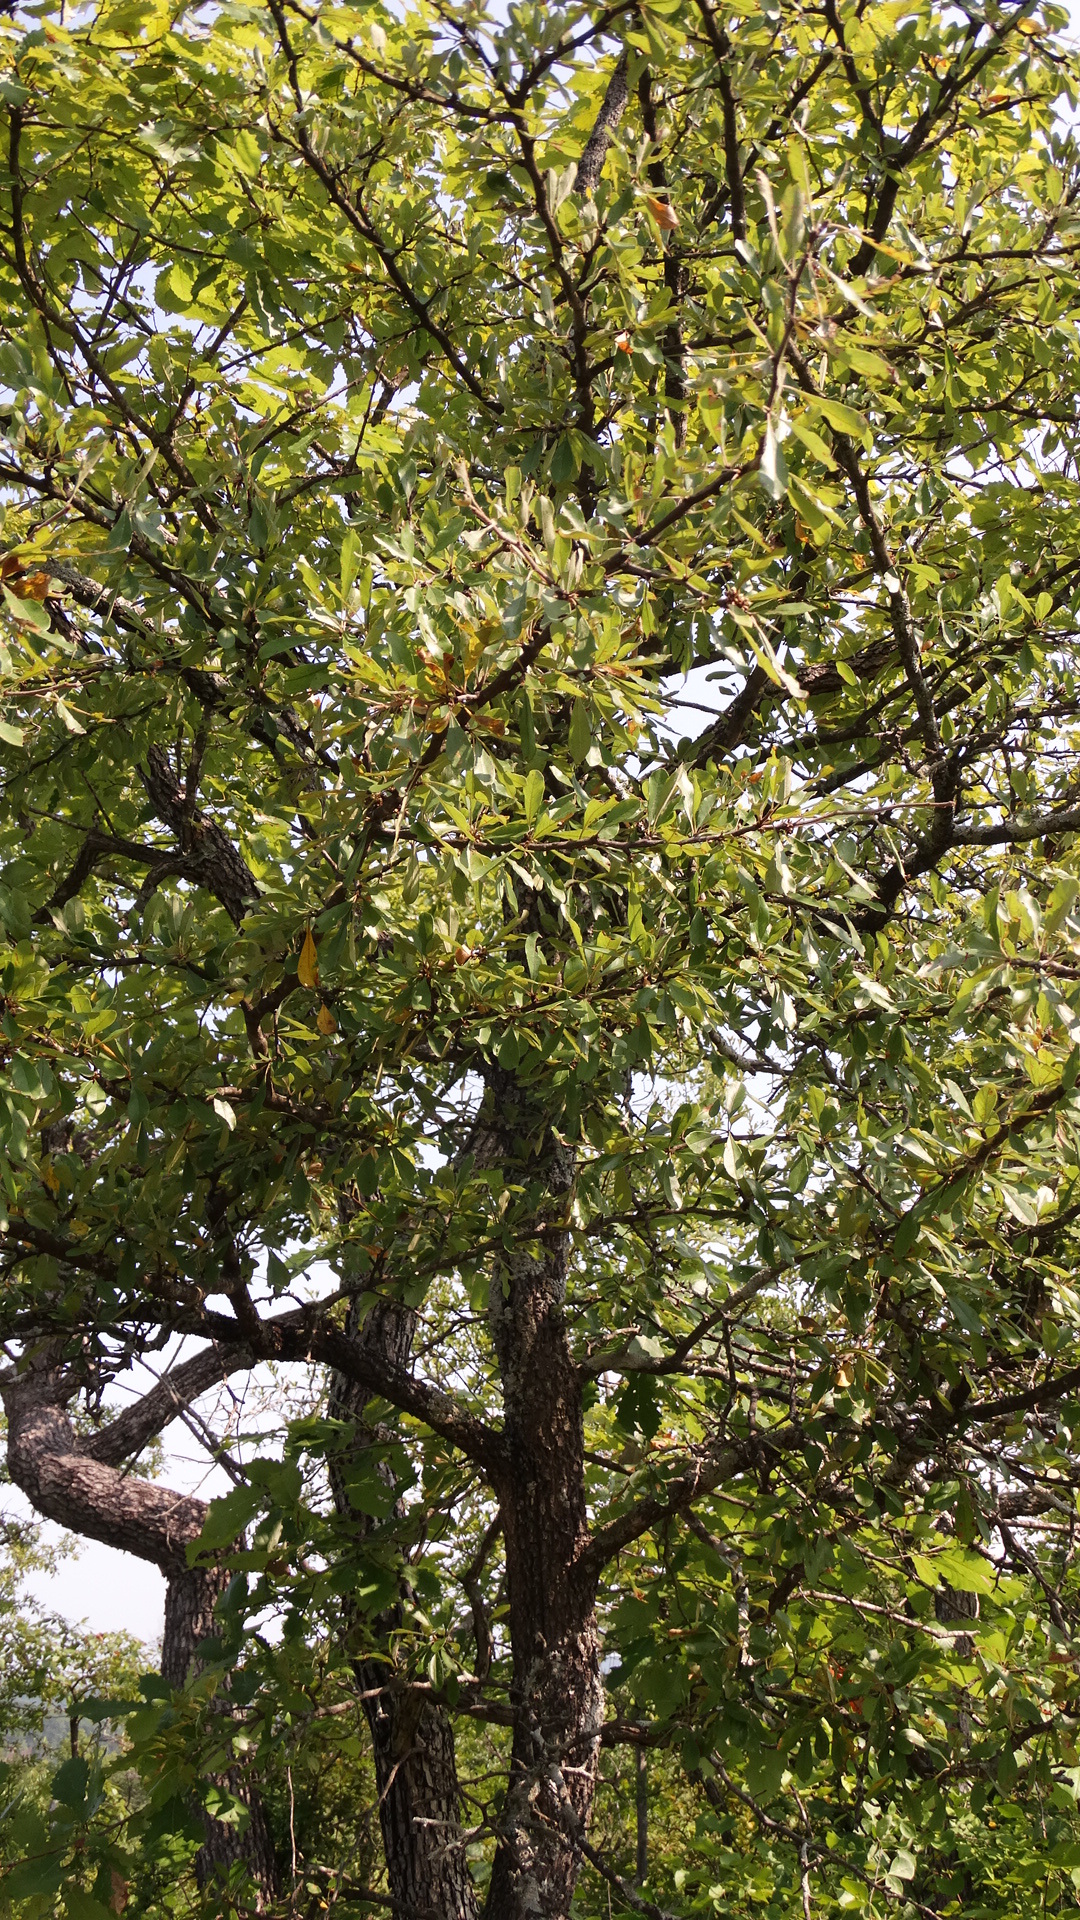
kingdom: Plantae
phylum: Tracheophyta
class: Magnoliopsida
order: Ericales
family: Sapotaceae
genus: Sideroxylon
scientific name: Sideroxylon lanuginosum
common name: Chittamwood
